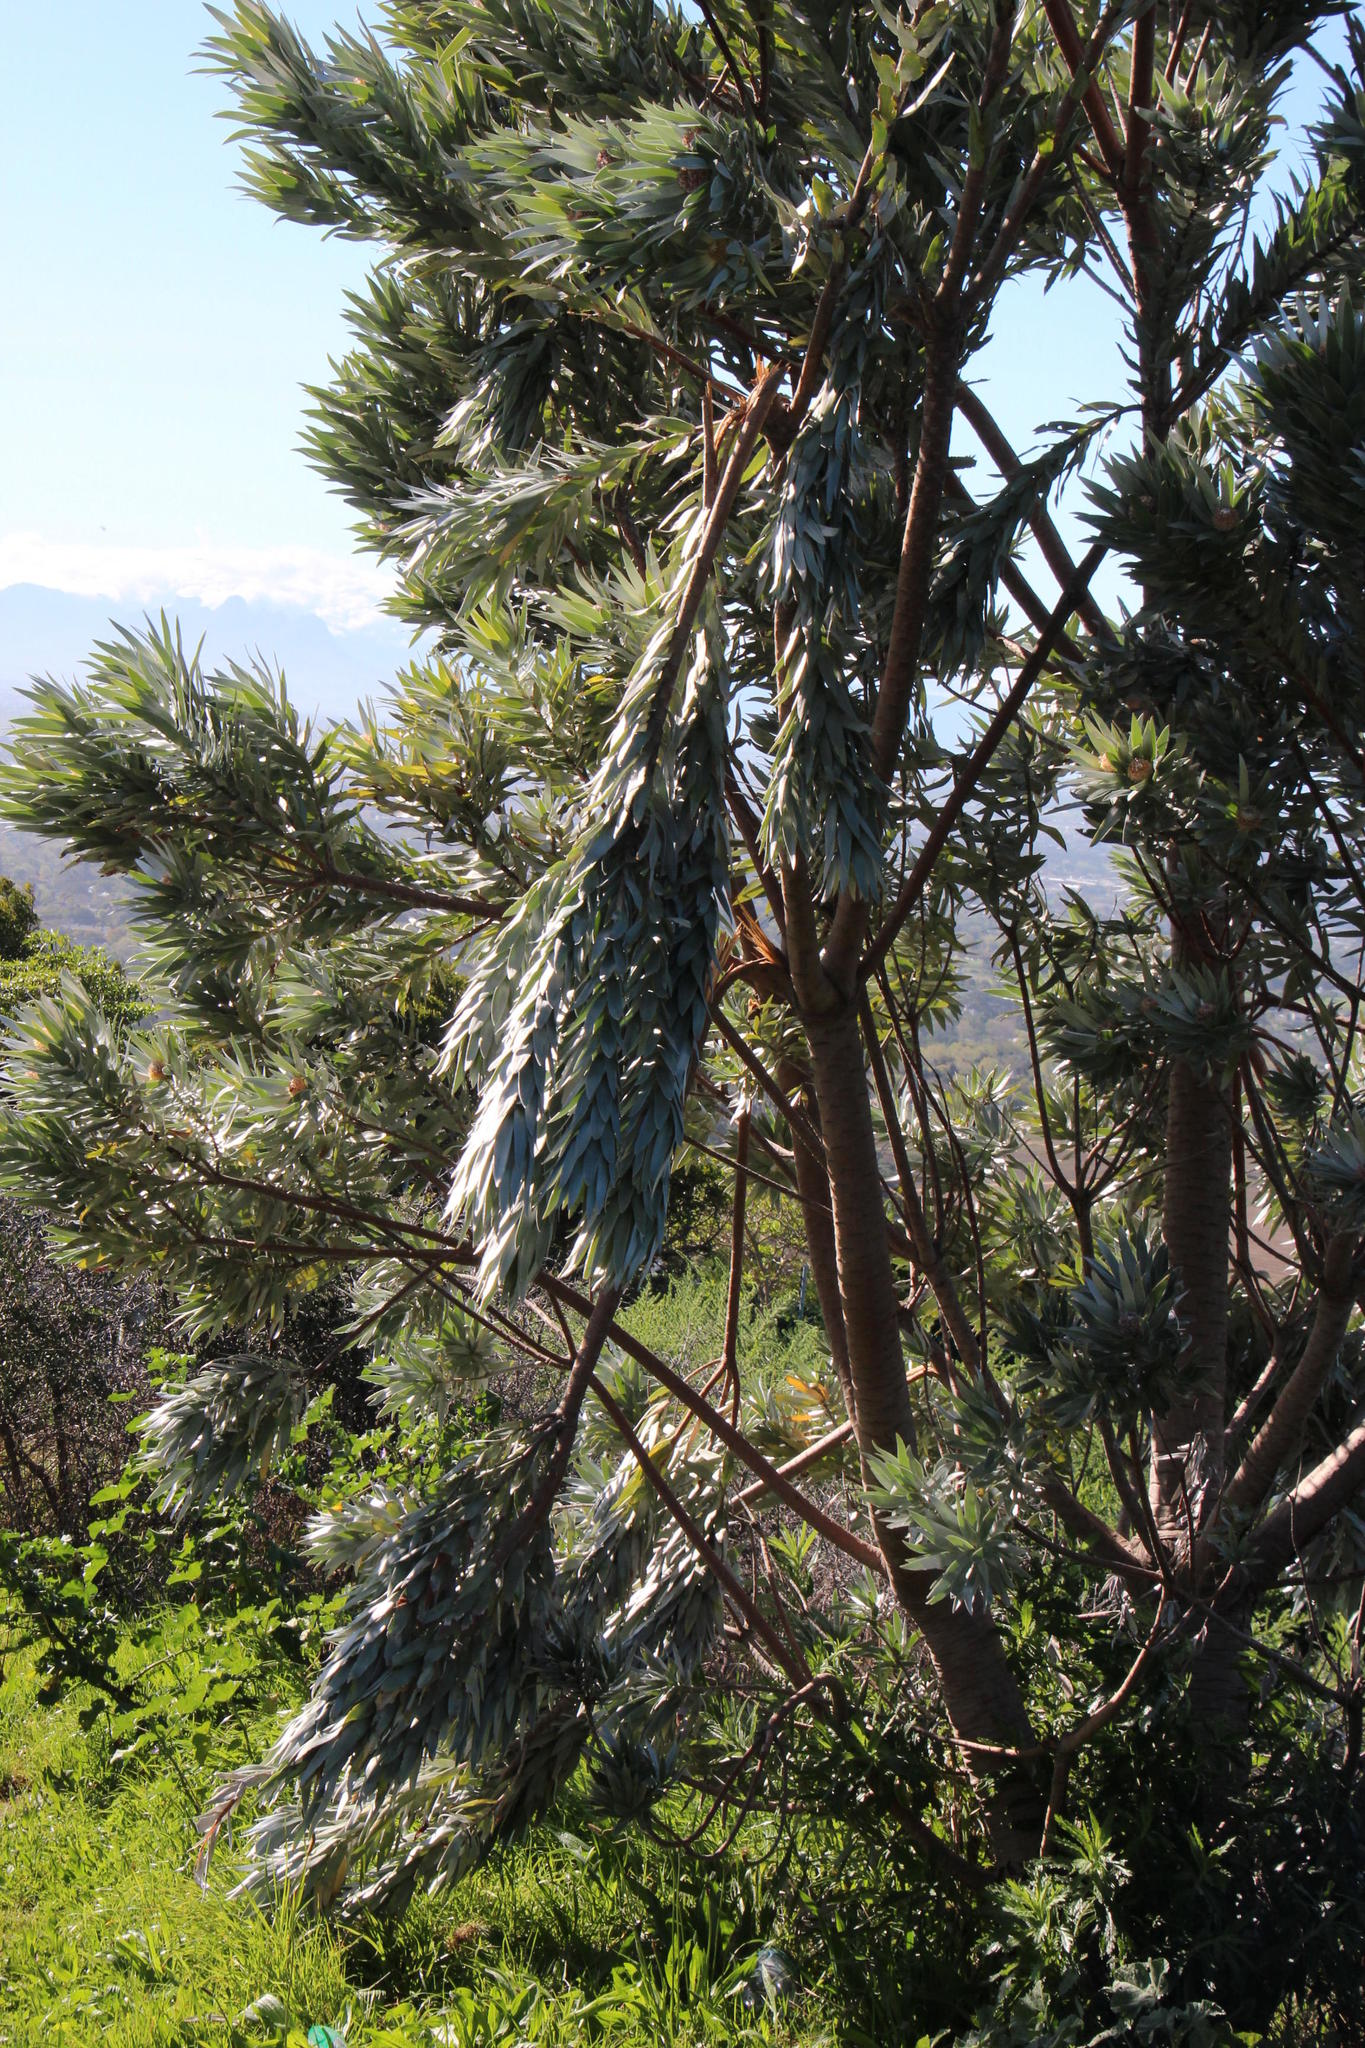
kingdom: Plantae
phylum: Tracheophyta
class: Magnoliopsida
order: Proteales
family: Proteaceae
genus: Leucadendron
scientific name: Leucadendron argenteum
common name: Cape silver tree
